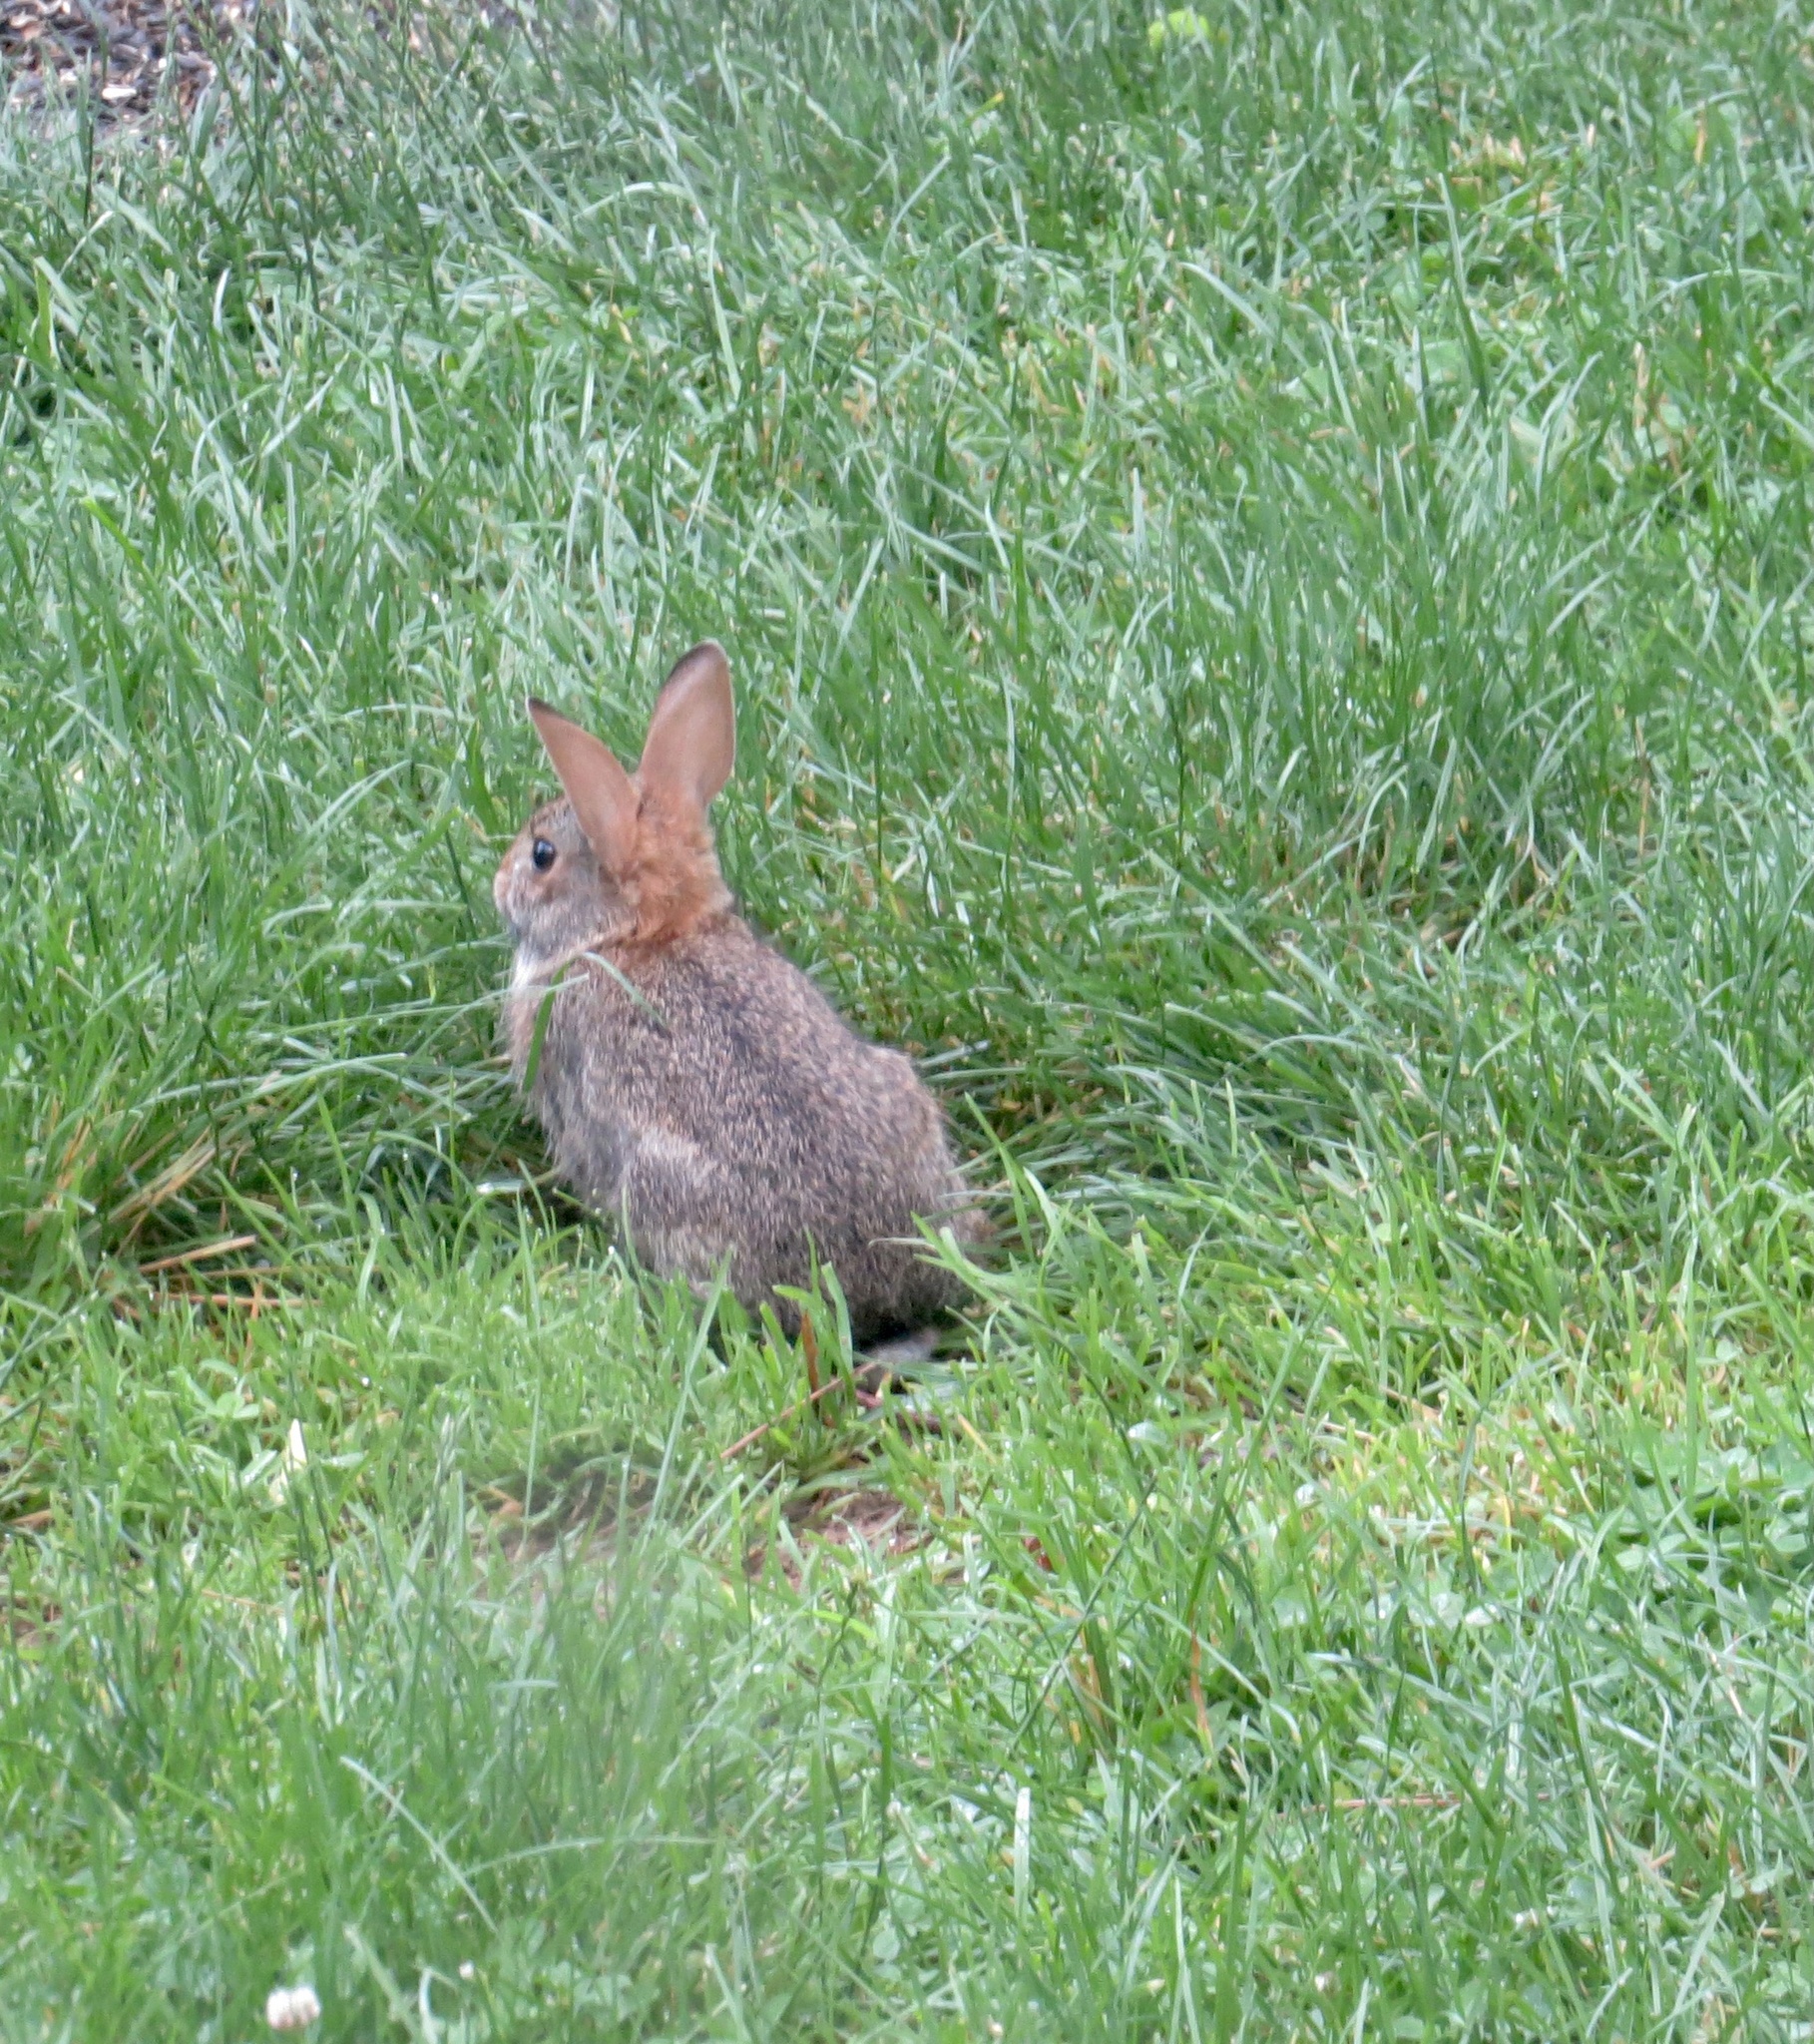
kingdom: Animalia
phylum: Chordata
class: Mammalia
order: Lagomorpha
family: Leporidae
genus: Sylvilagus
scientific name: Sylvilagus floridanus
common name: Eastern cottontail
